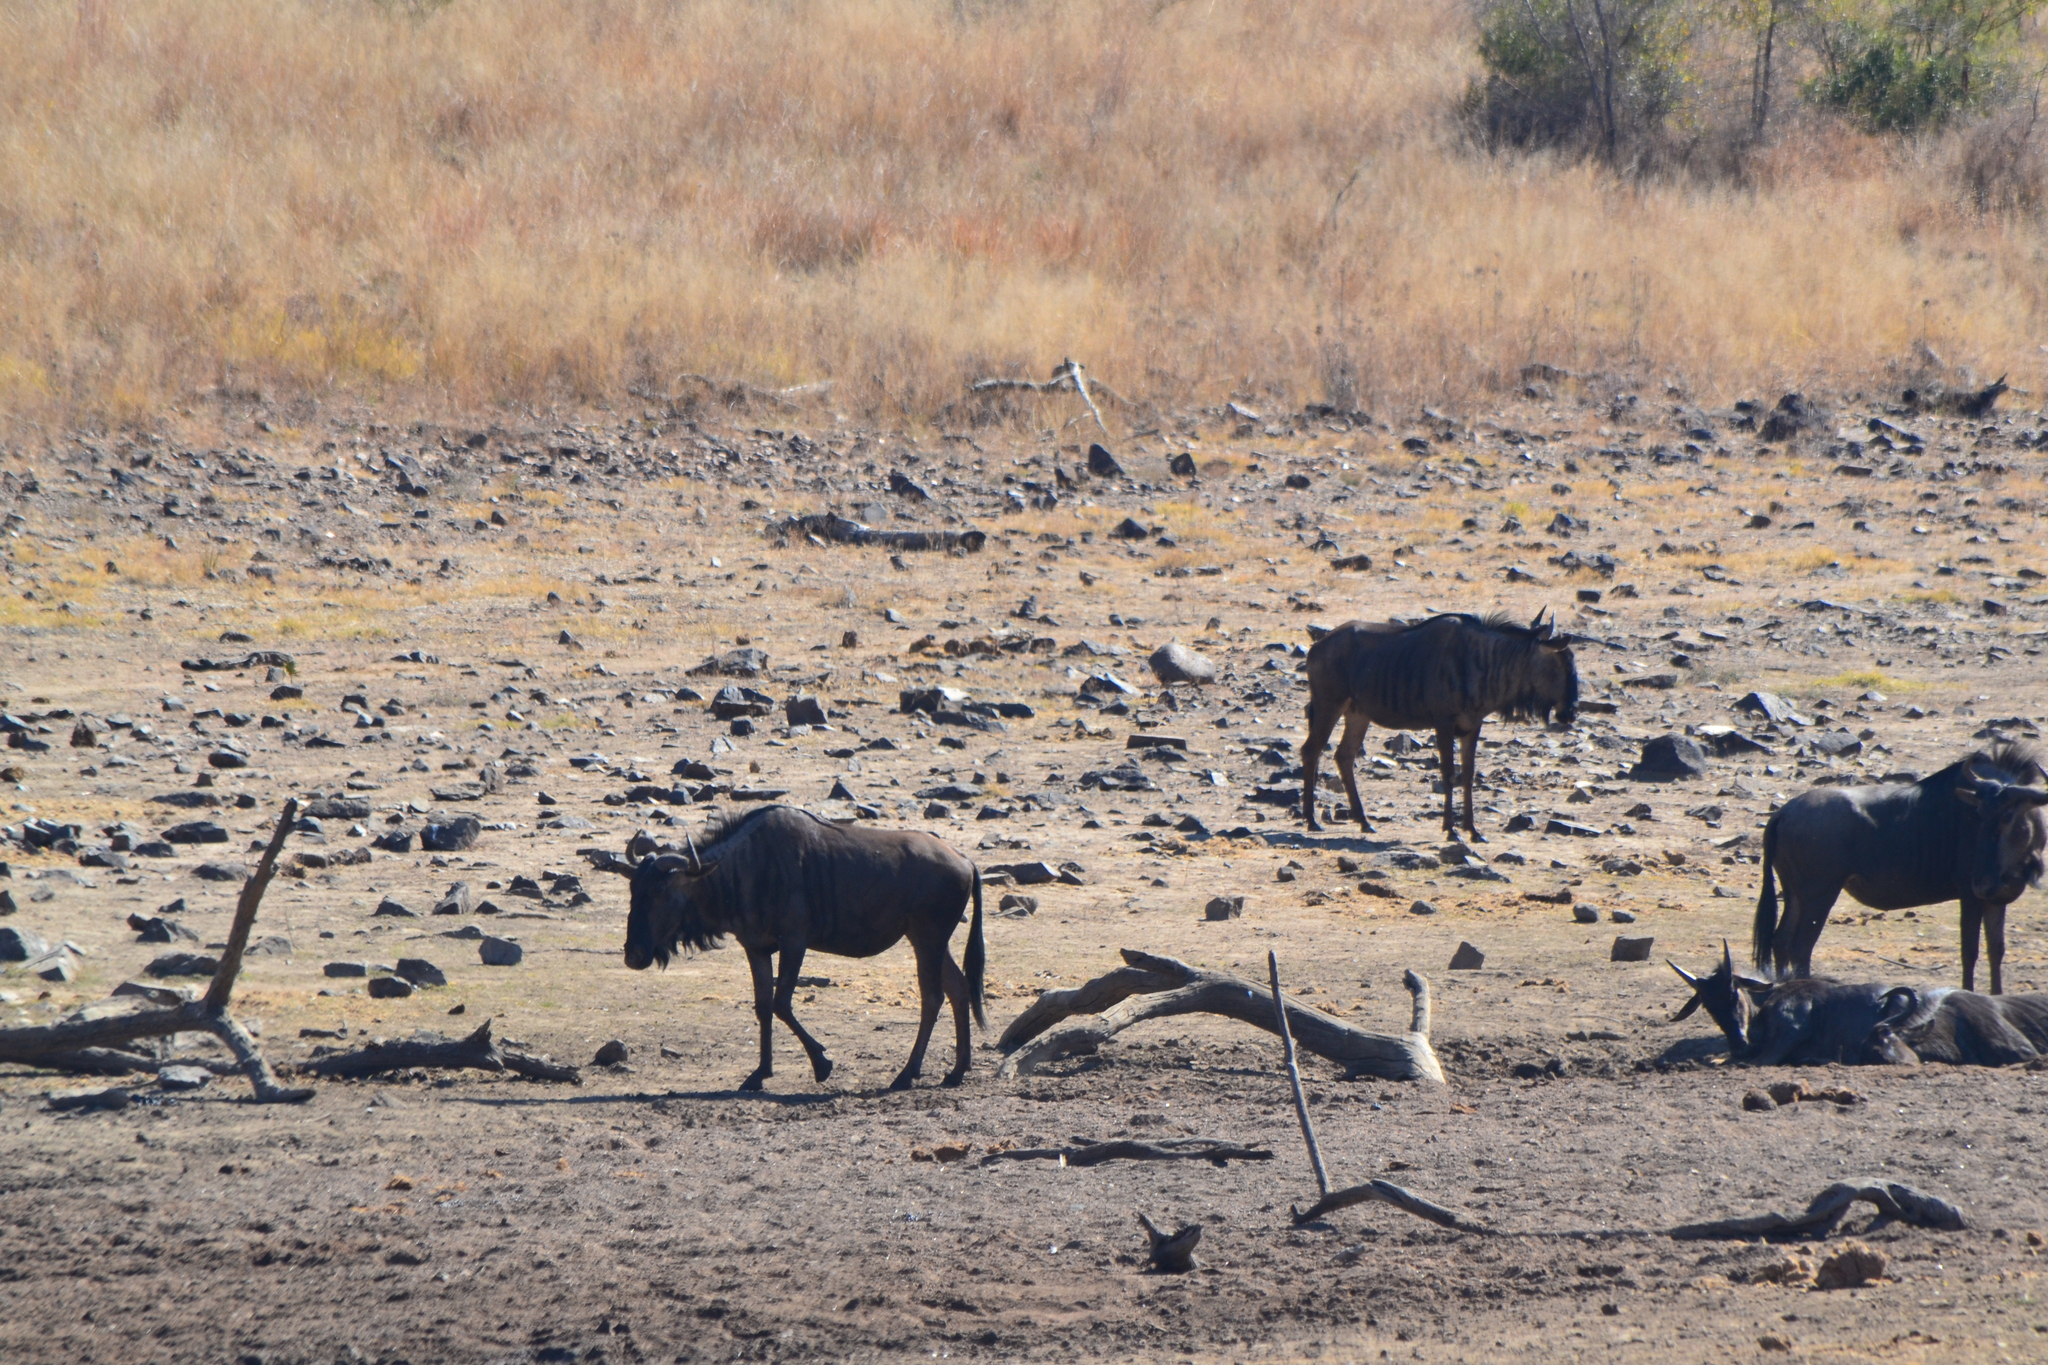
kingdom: Animalia
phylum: Chordata
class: Mammalia
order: Artiodactyla
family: Bovidae
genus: Connochaetes
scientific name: Connochaetes taurinus
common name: Blue wildebeest
